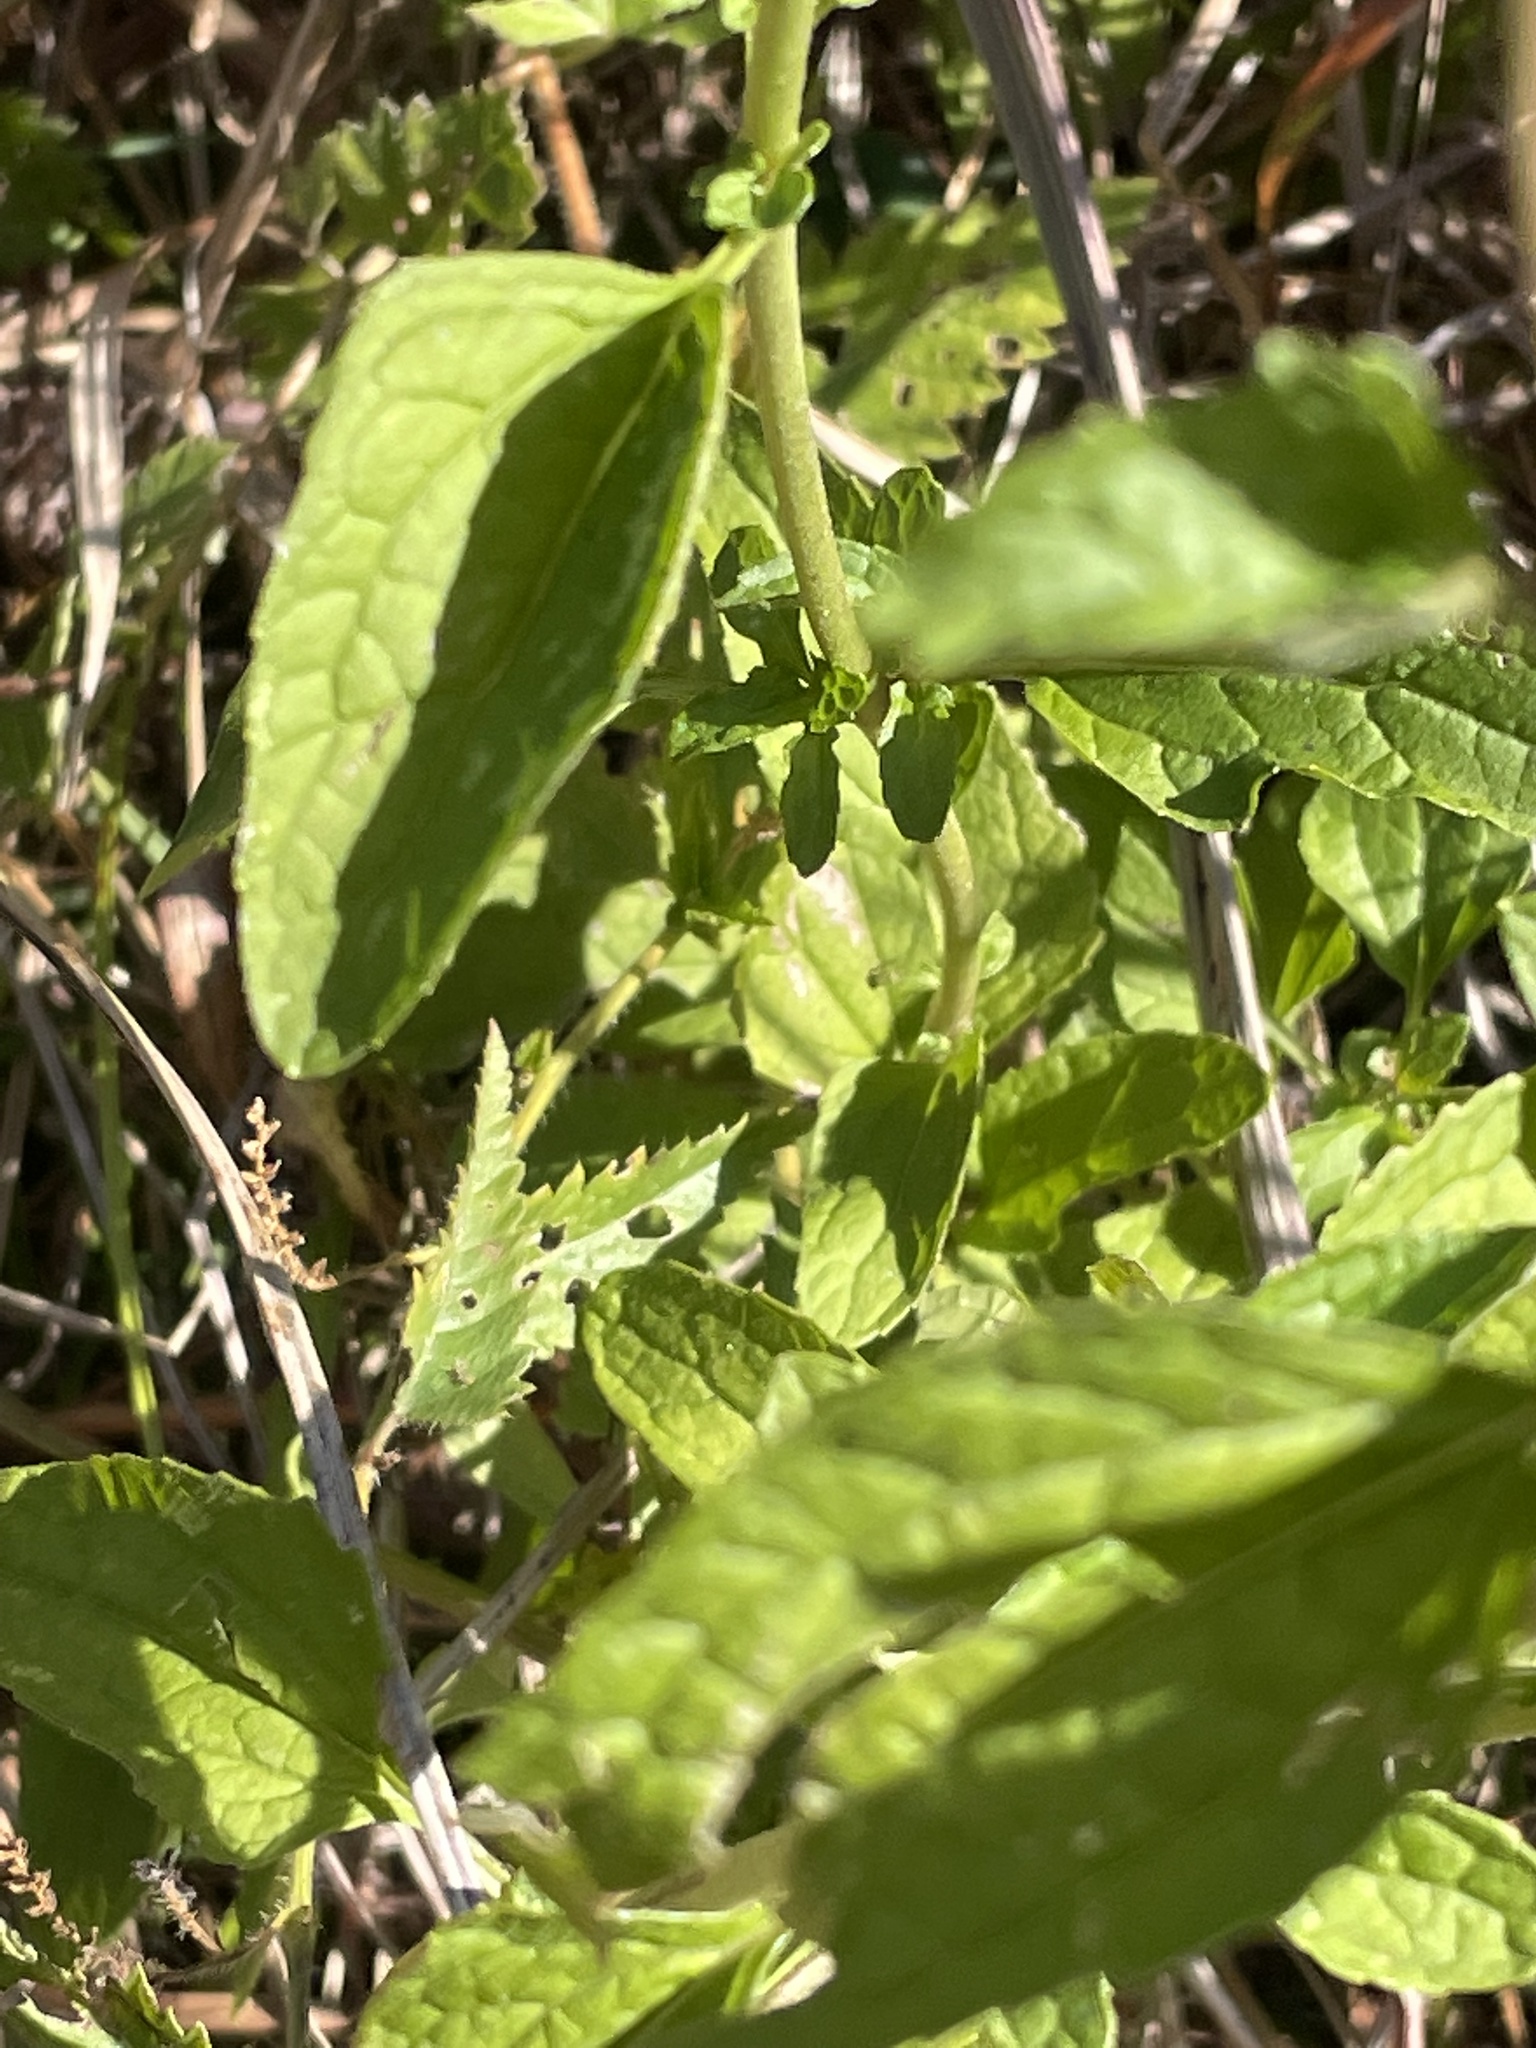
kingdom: Plantae
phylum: Tracheophyta
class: Magnoliopsida
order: Asterales
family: Asteraceae
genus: Conoclinium
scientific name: Conoclinium coelestinum
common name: Blue mistflower
